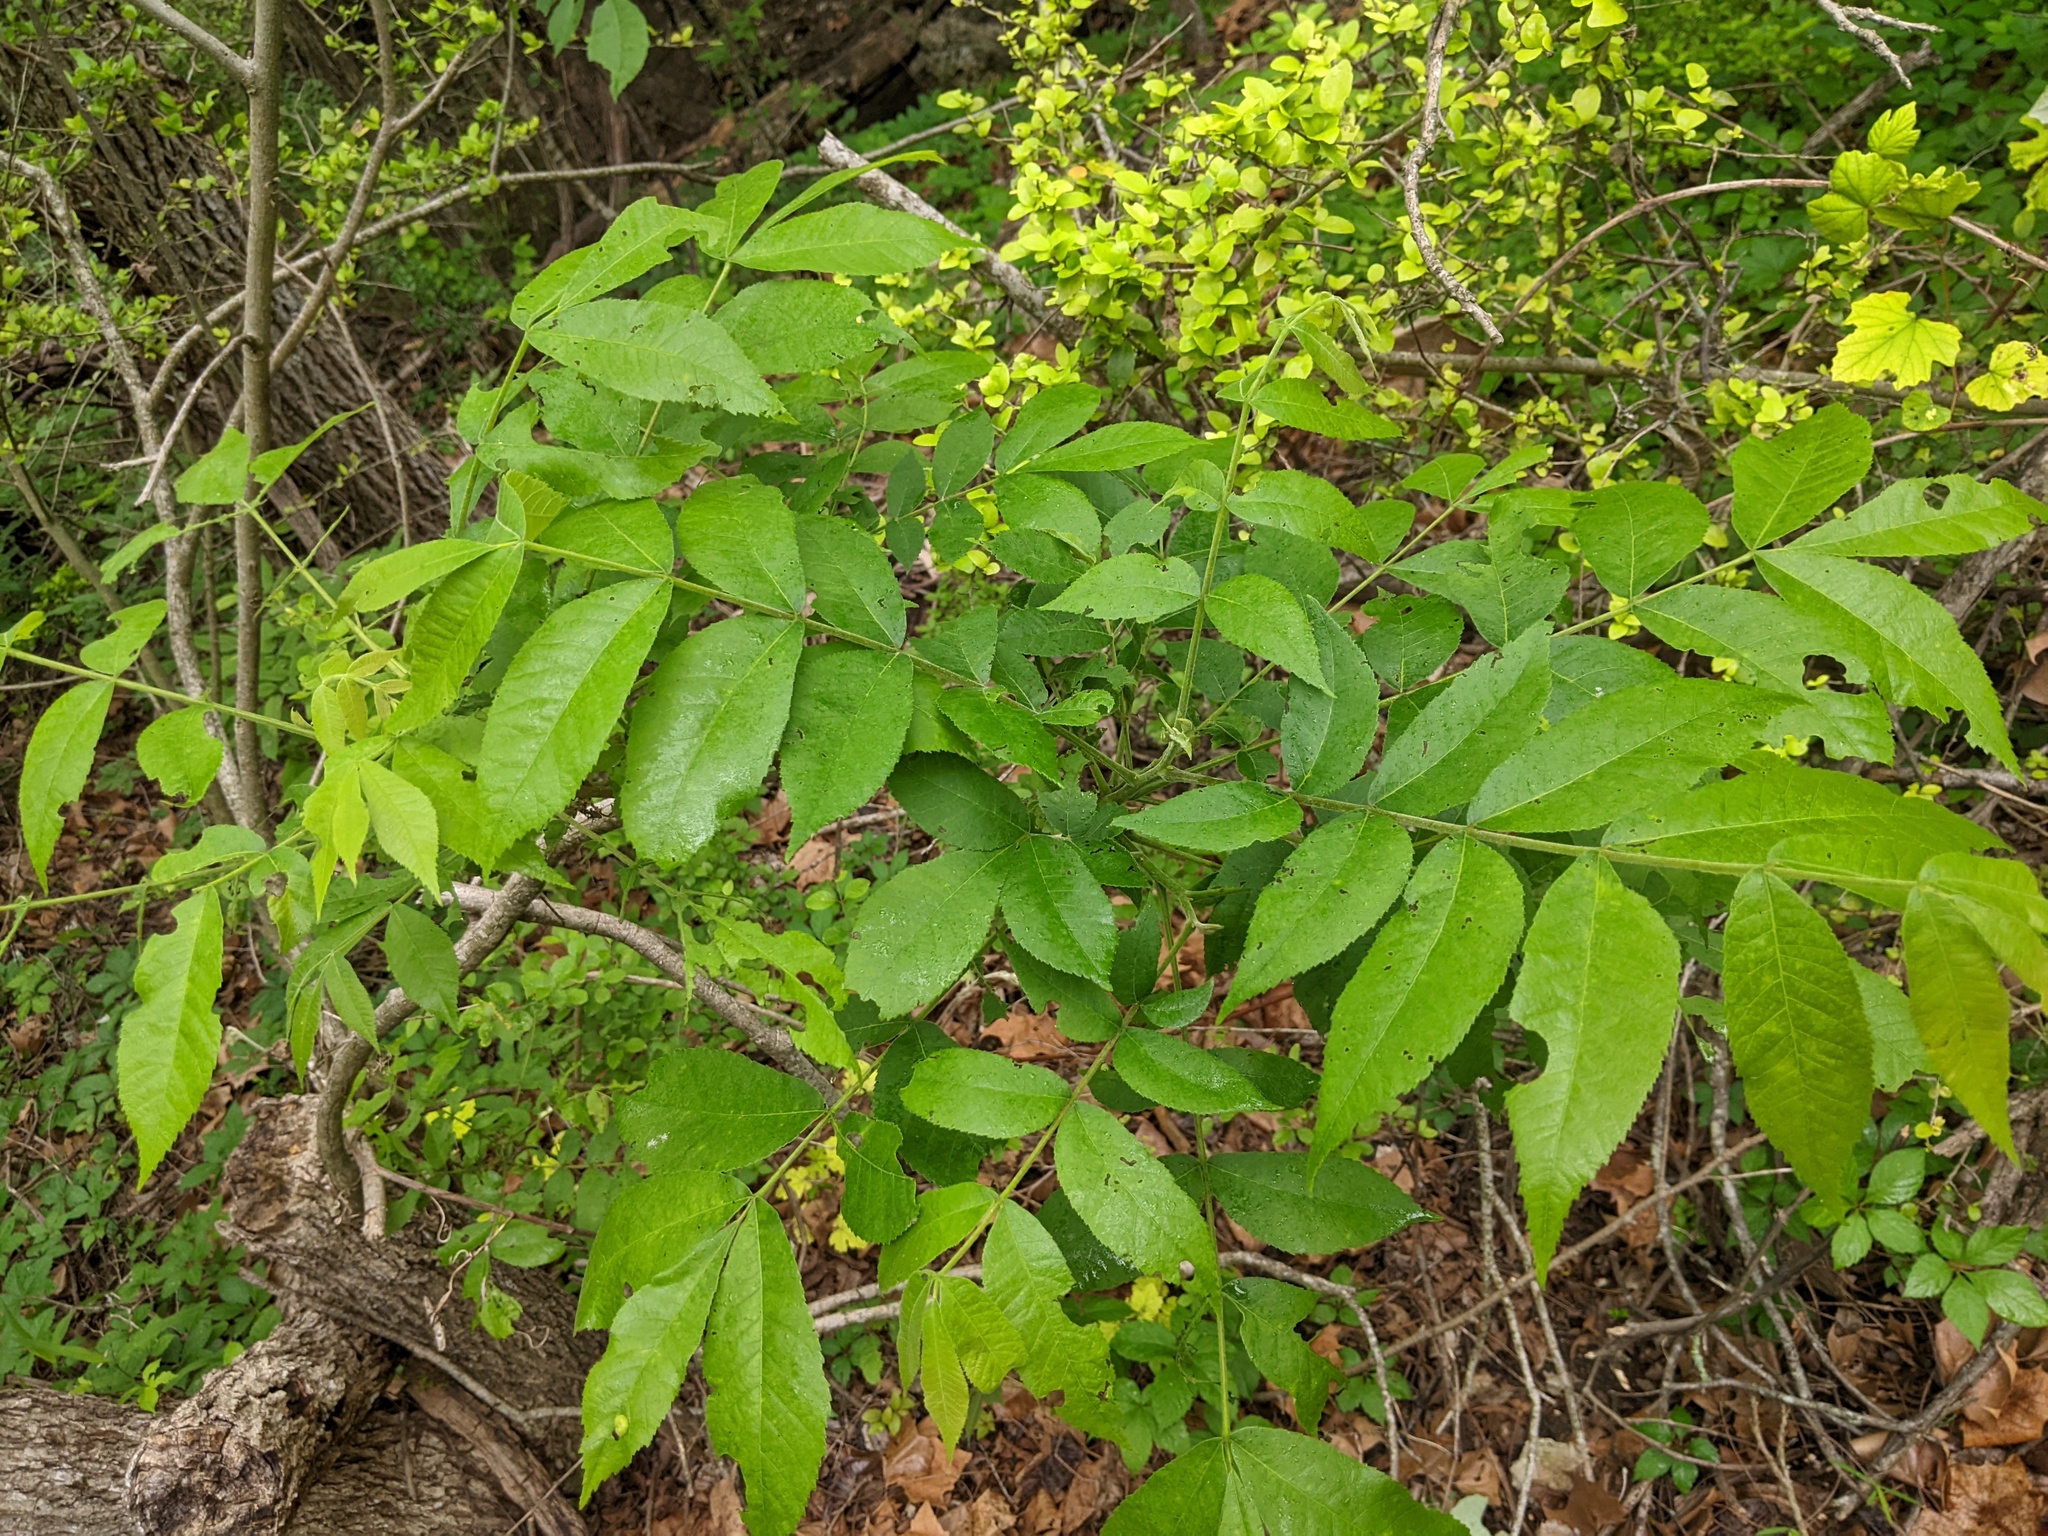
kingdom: Plantae
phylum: Tracheophyta
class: Magnoliopsida
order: Fagales
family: Juglandaceae
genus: Carya
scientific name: Carya illinoinensis
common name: Pecan
